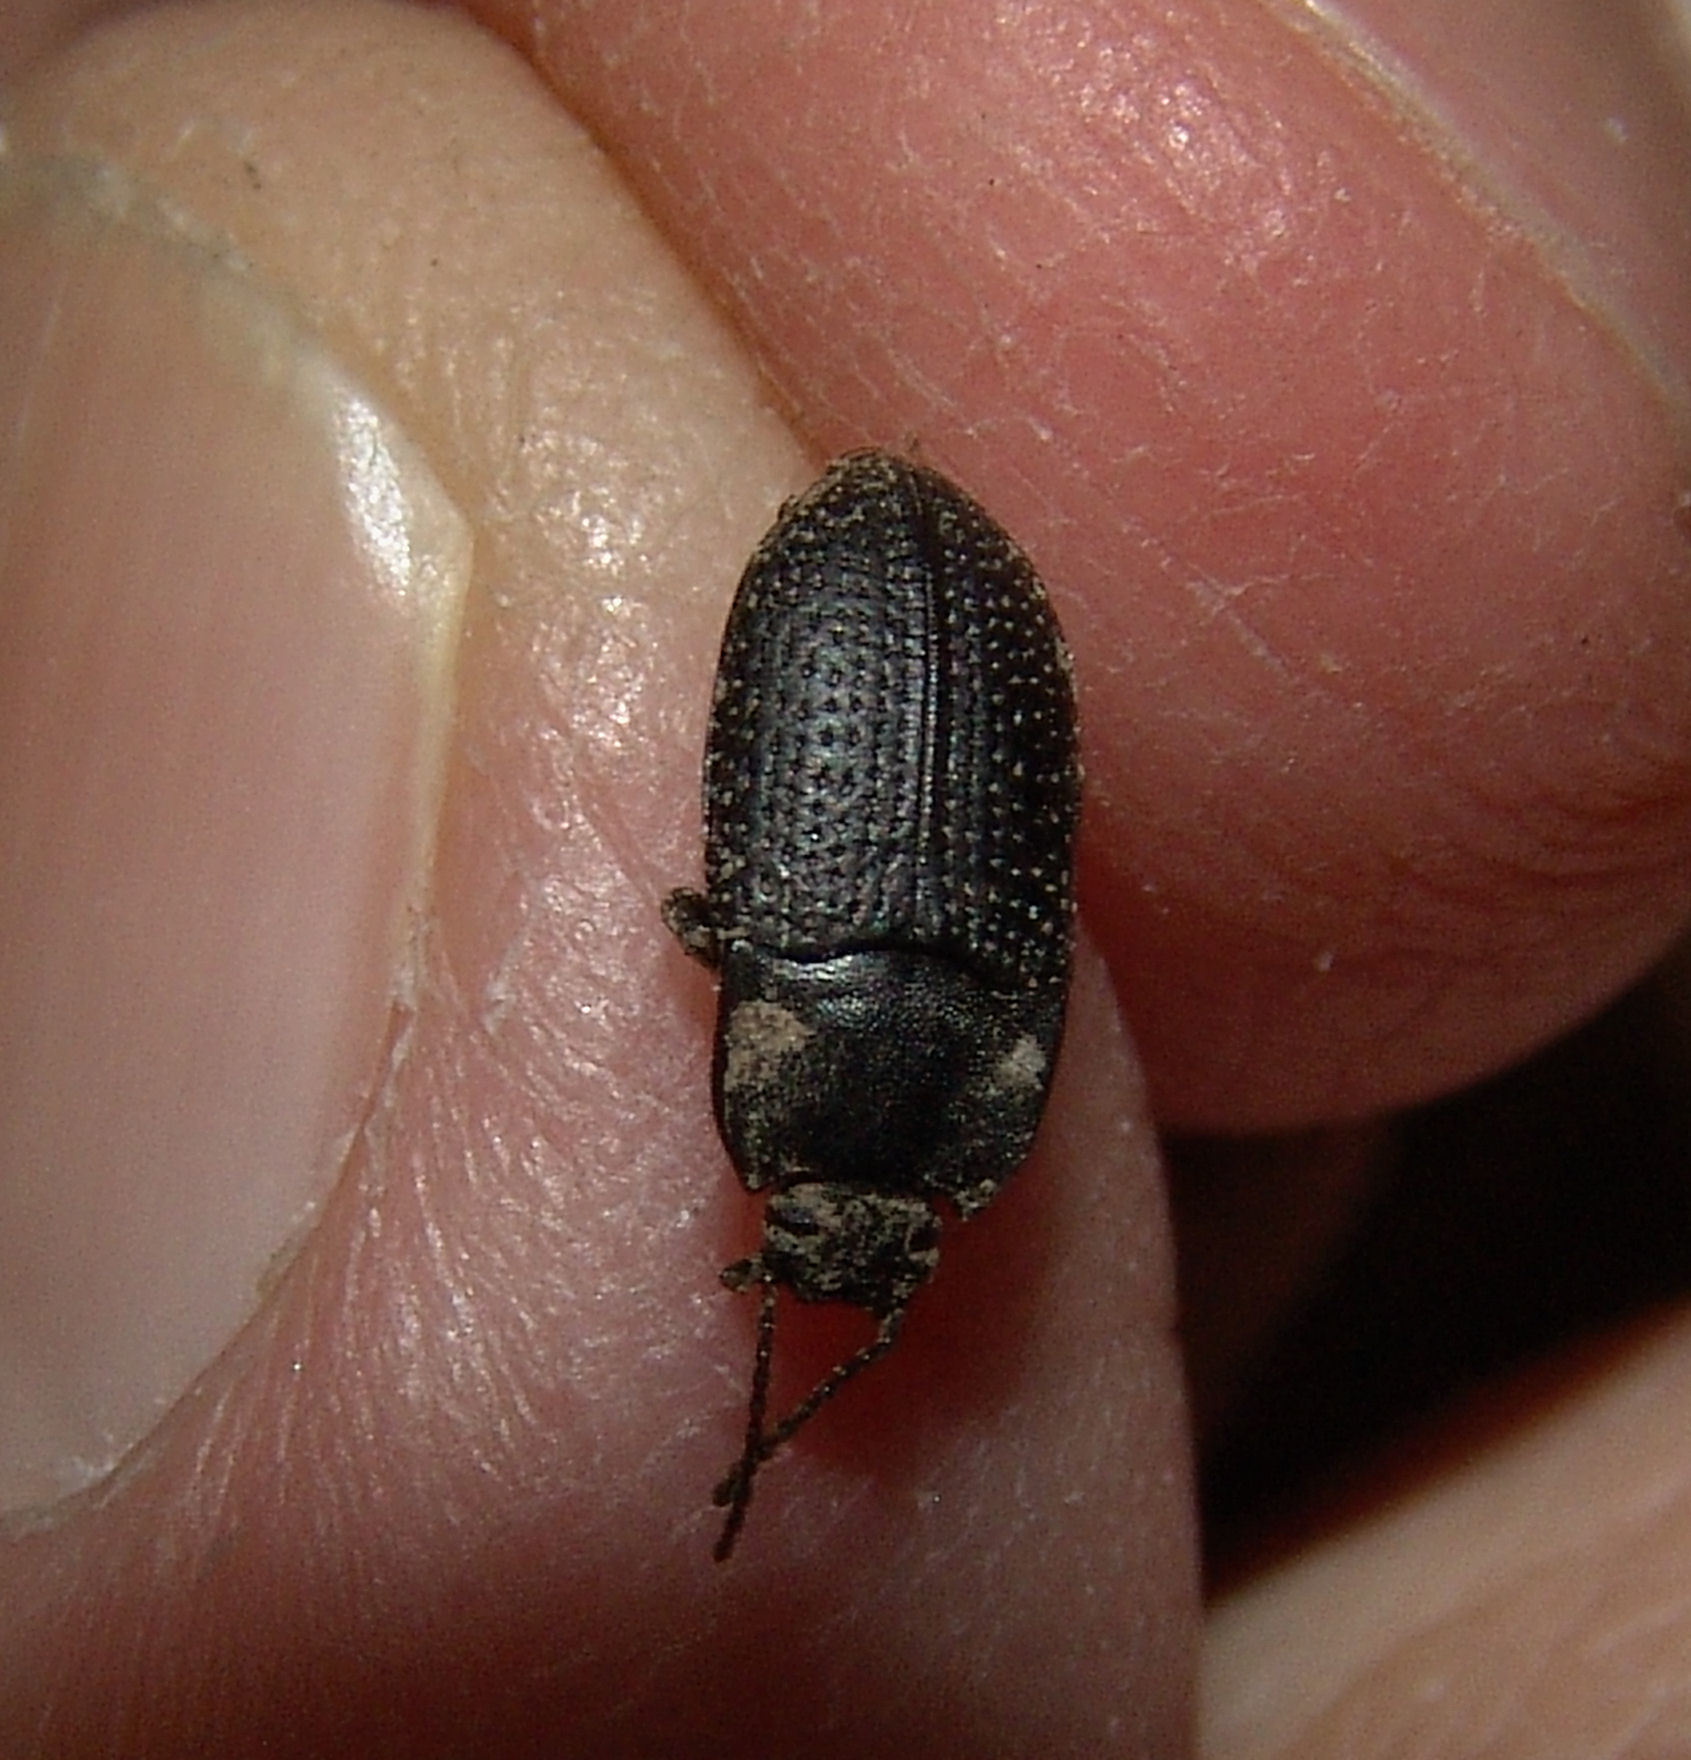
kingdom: Animalia
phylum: Arthropoda
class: Insecta
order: Coleoptera
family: Tenebrionidae
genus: Asiopus
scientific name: Asiopus
